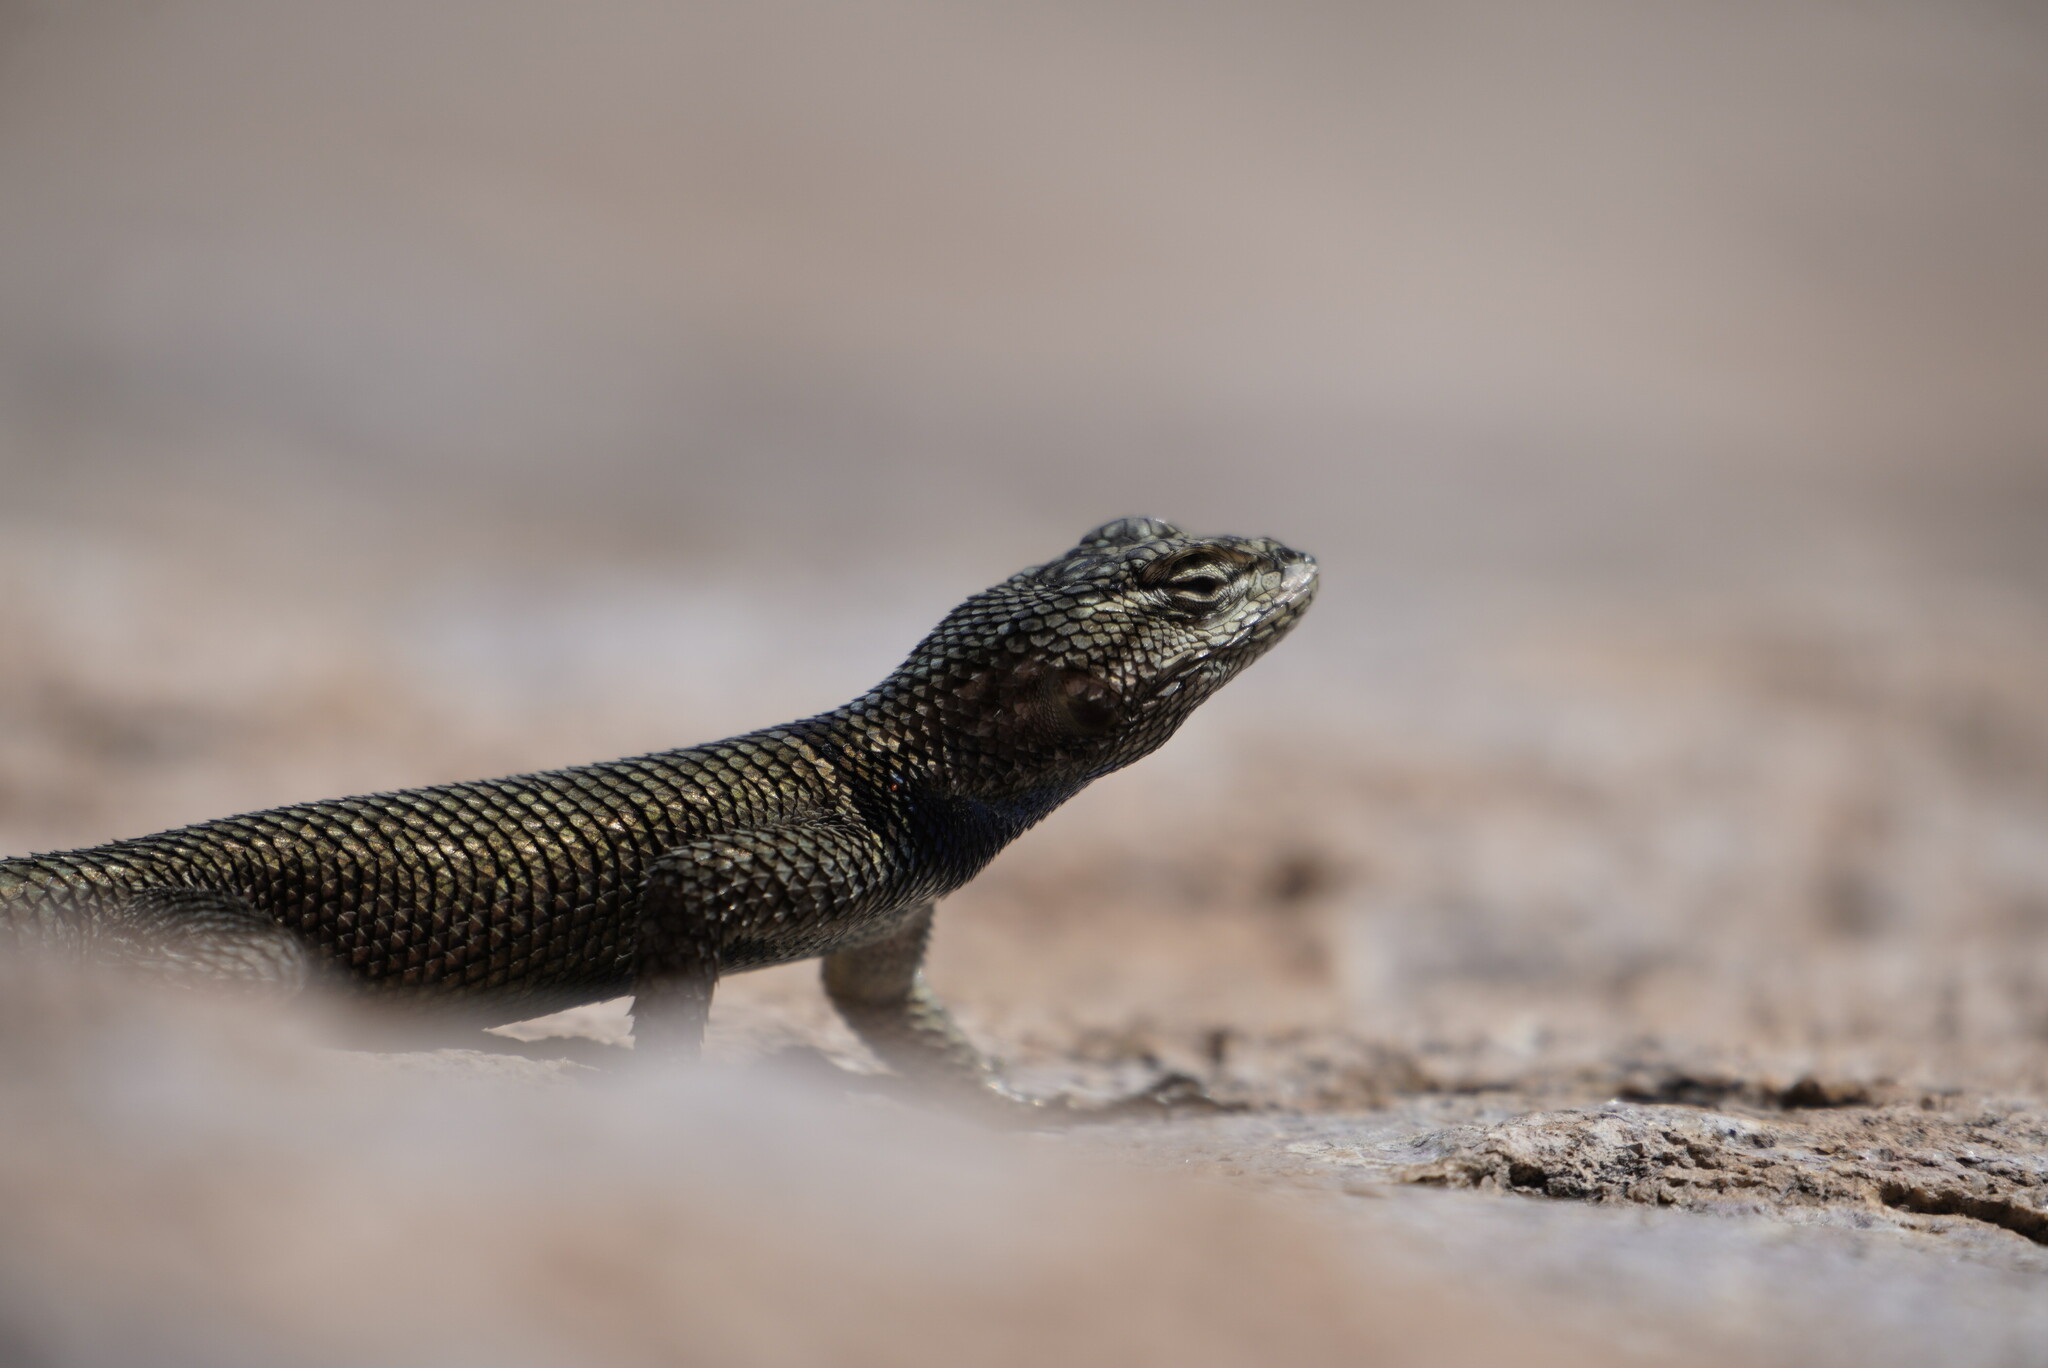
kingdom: Animalia
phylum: Chordata
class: Squamata
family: Phrynosomatidae
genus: Sceloporus
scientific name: Sceloporus jarrovii
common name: Yarrow's spiny lizard
